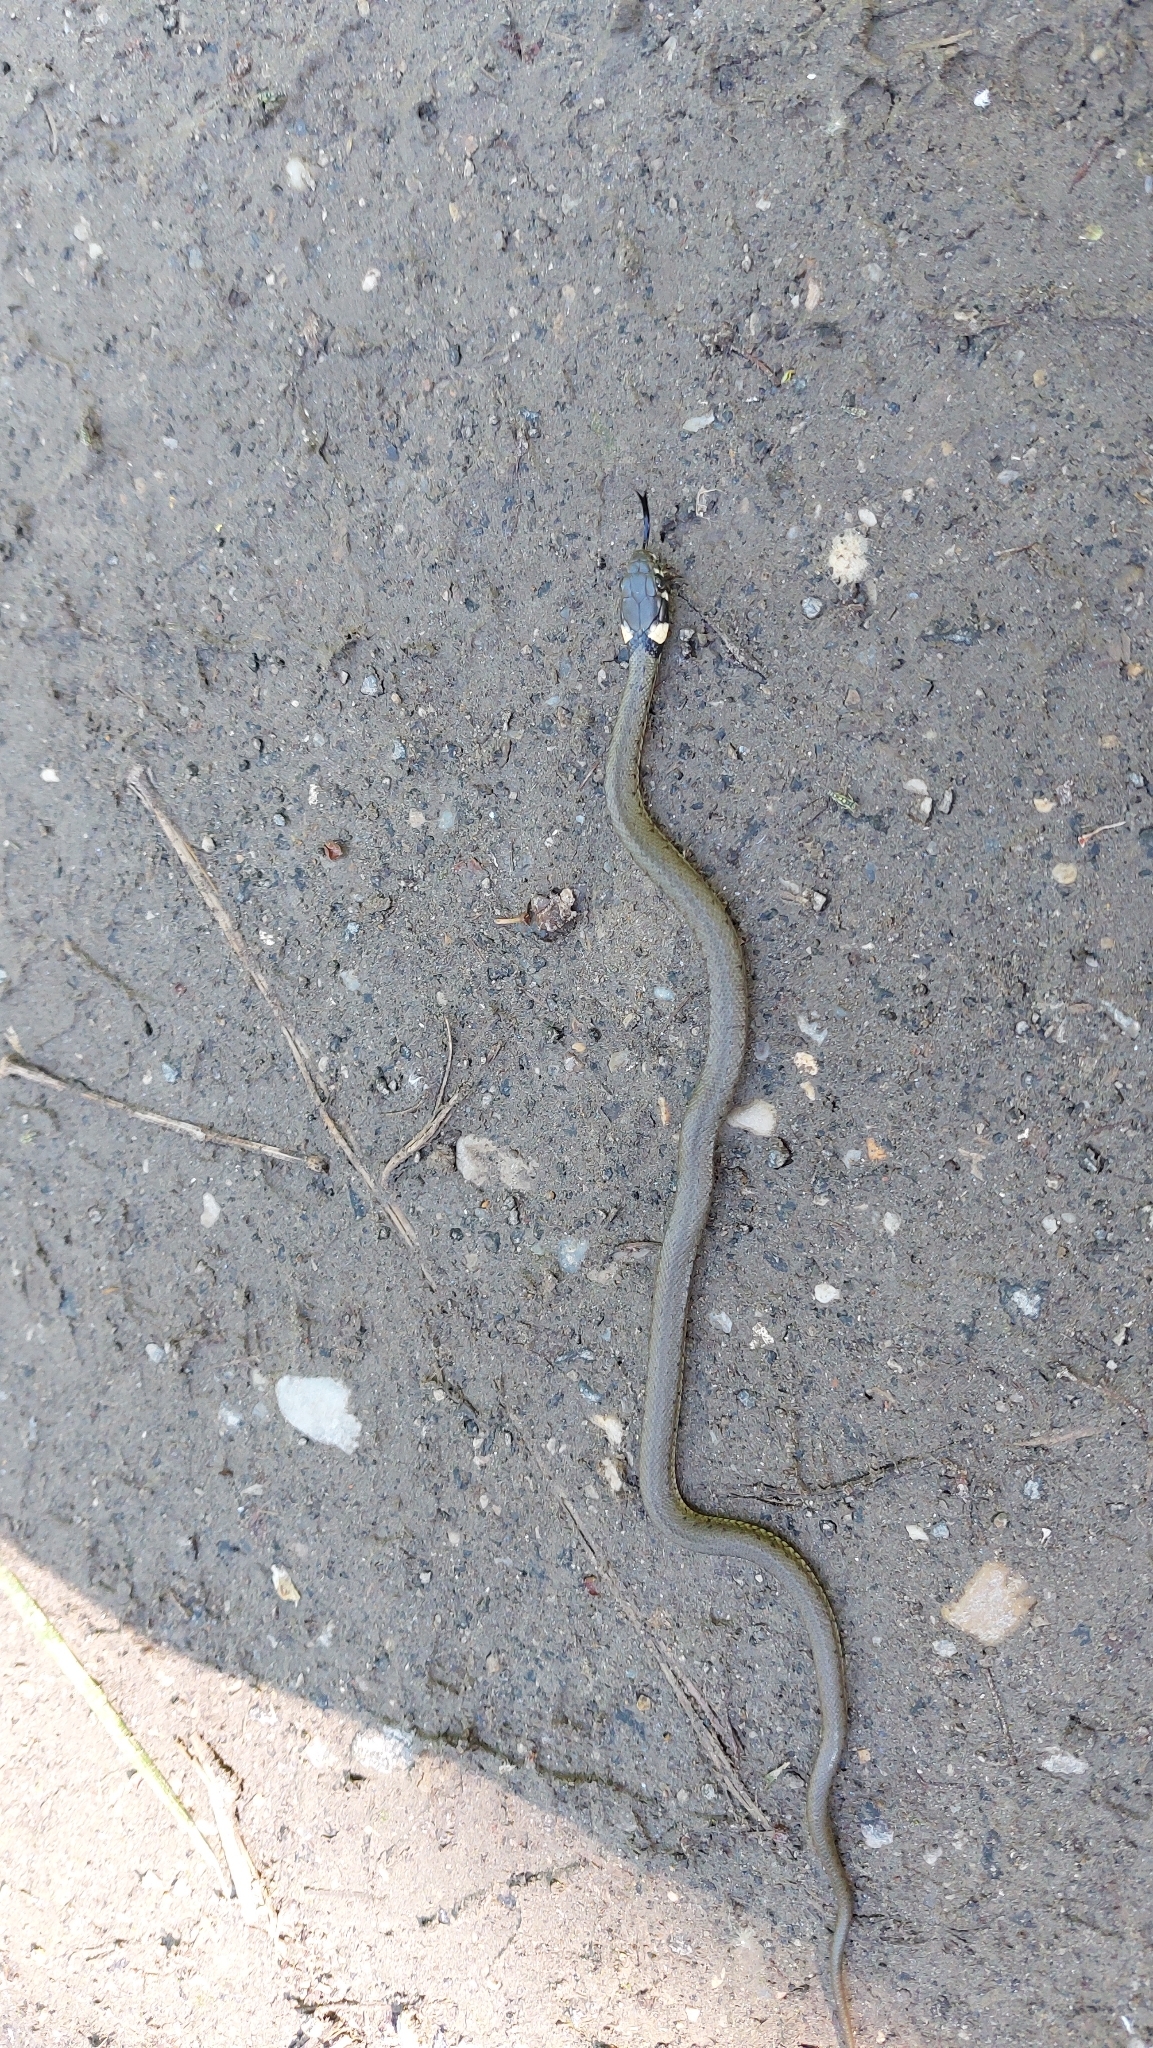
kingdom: Animalia
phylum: Chordata
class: Squamata
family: Colubridae
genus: Natrix
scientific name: Natrix natrix
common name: Grass snake
